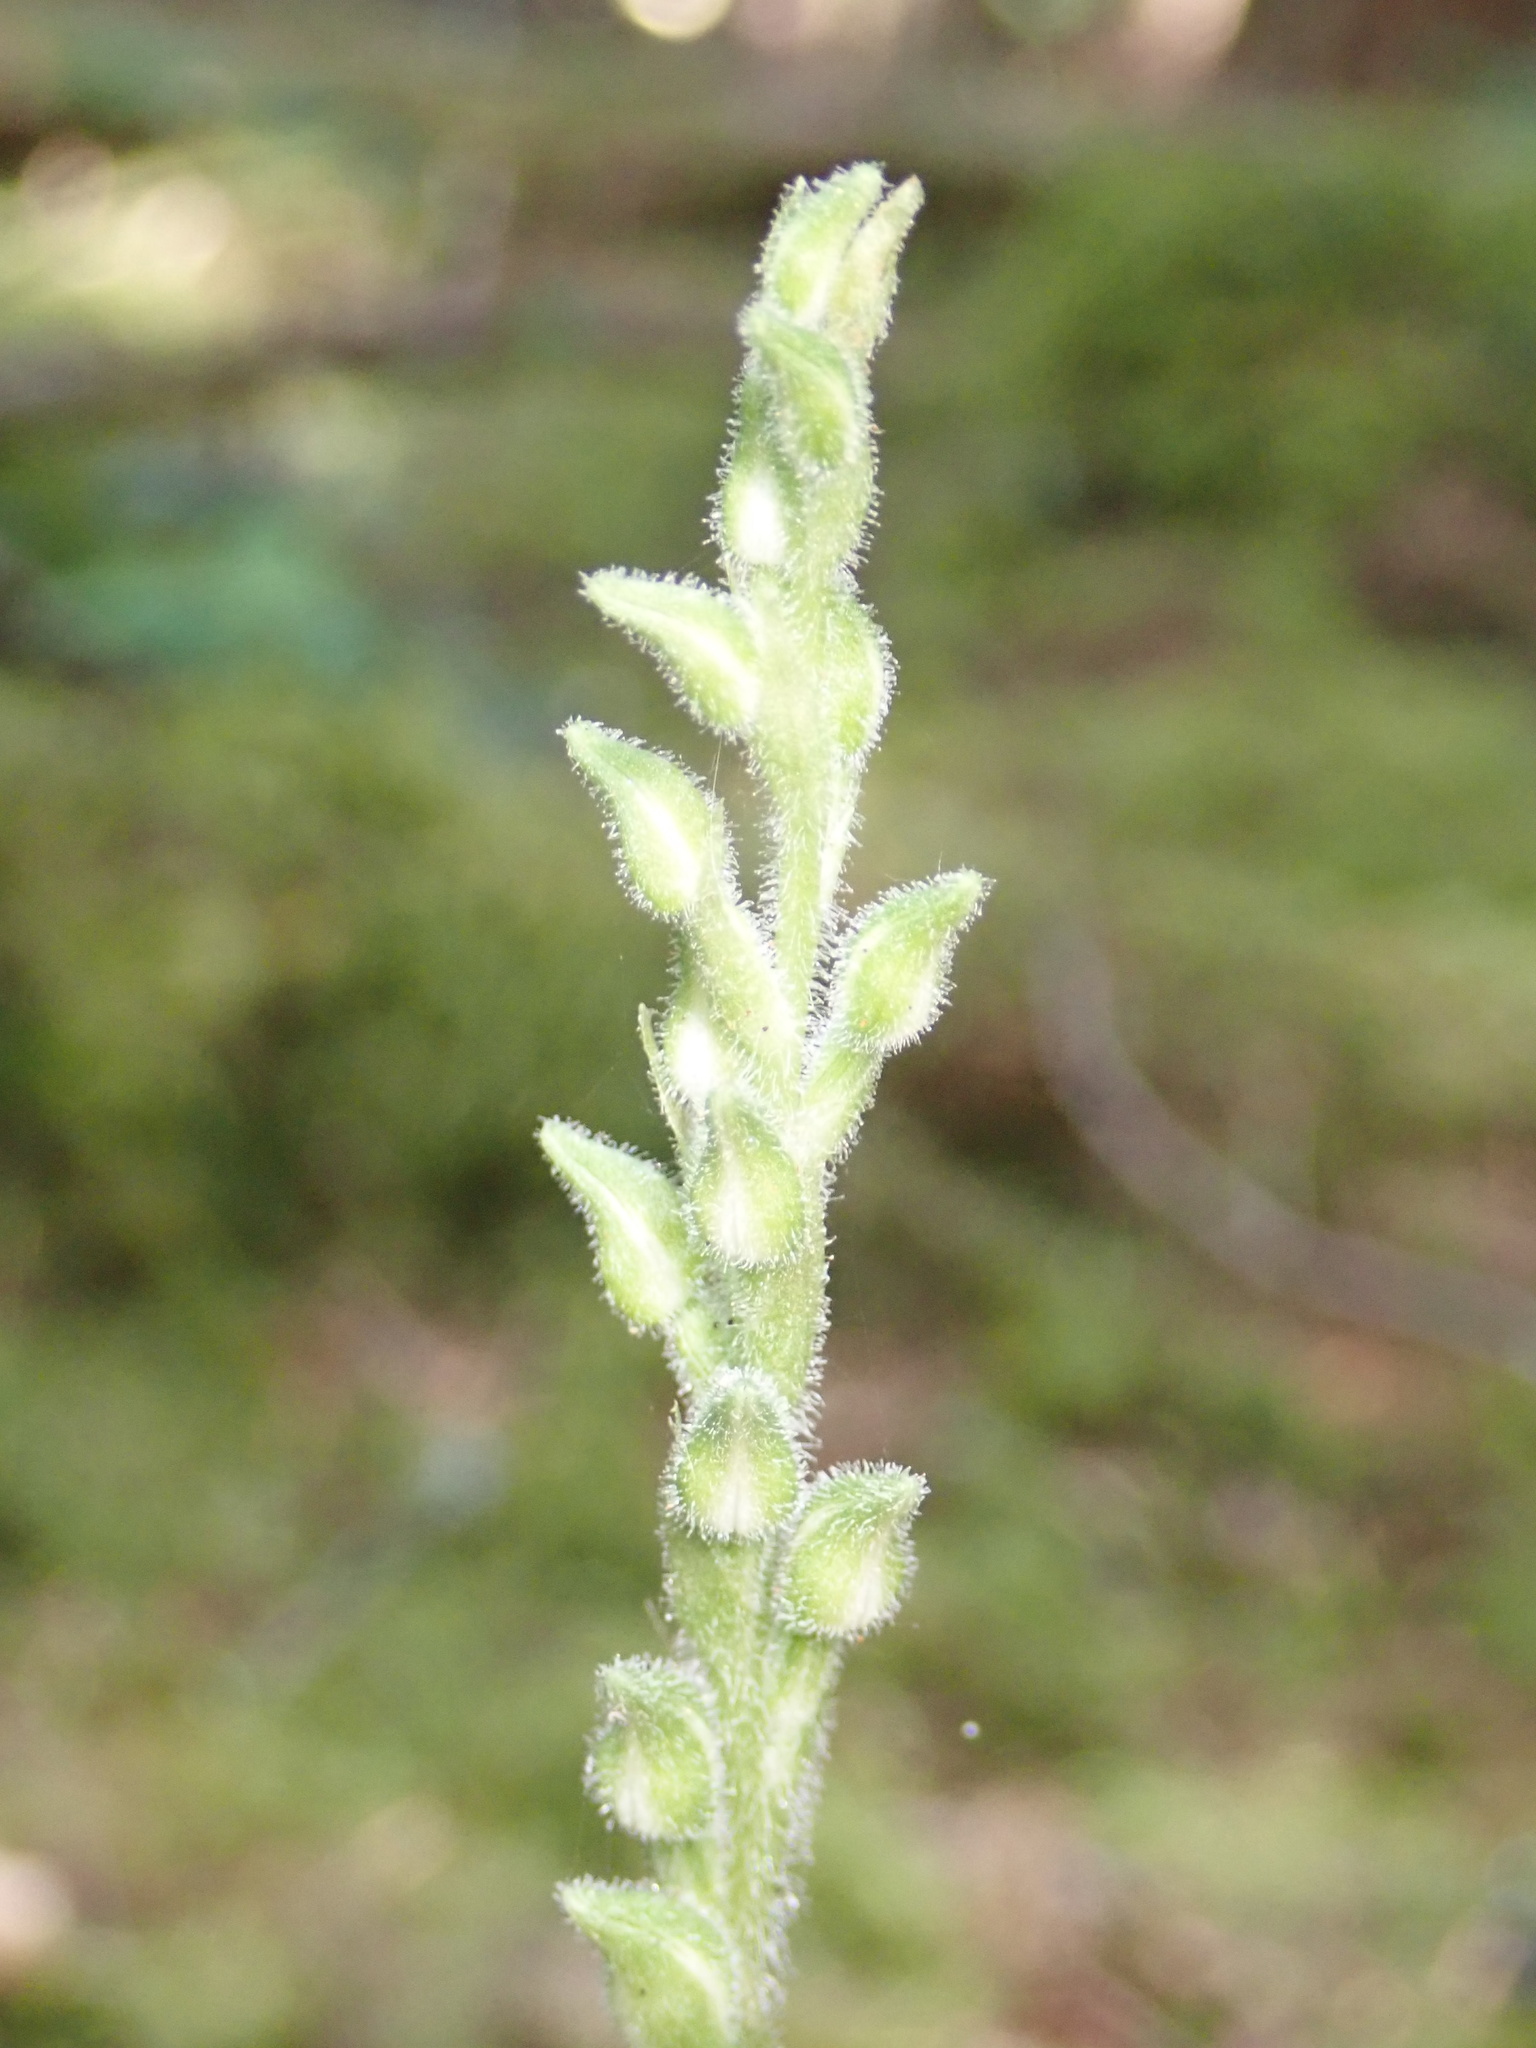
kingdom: Plantae
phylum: Tracheophyta
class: Liliopsida
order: Asparagales
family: Orchidaceae
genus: Goodyera
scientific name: Goodyera oblongifolia
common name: Giant rattlesnake-plantain
